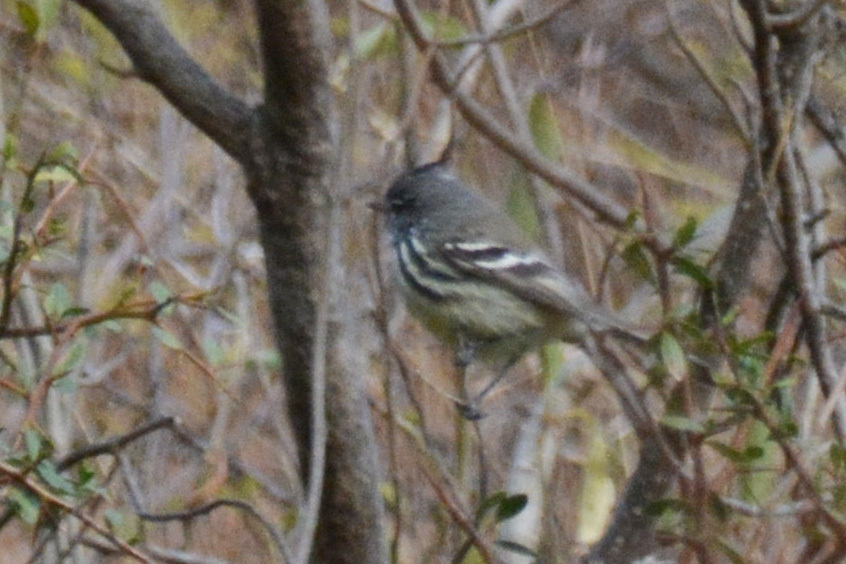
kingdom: Animalia
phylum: Chordata
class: Aves
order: Passeriformes
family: Tyrannidae
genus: Anairetes
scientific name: Anairetes flavirostris
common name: Yellow-billed tit-tyrant
